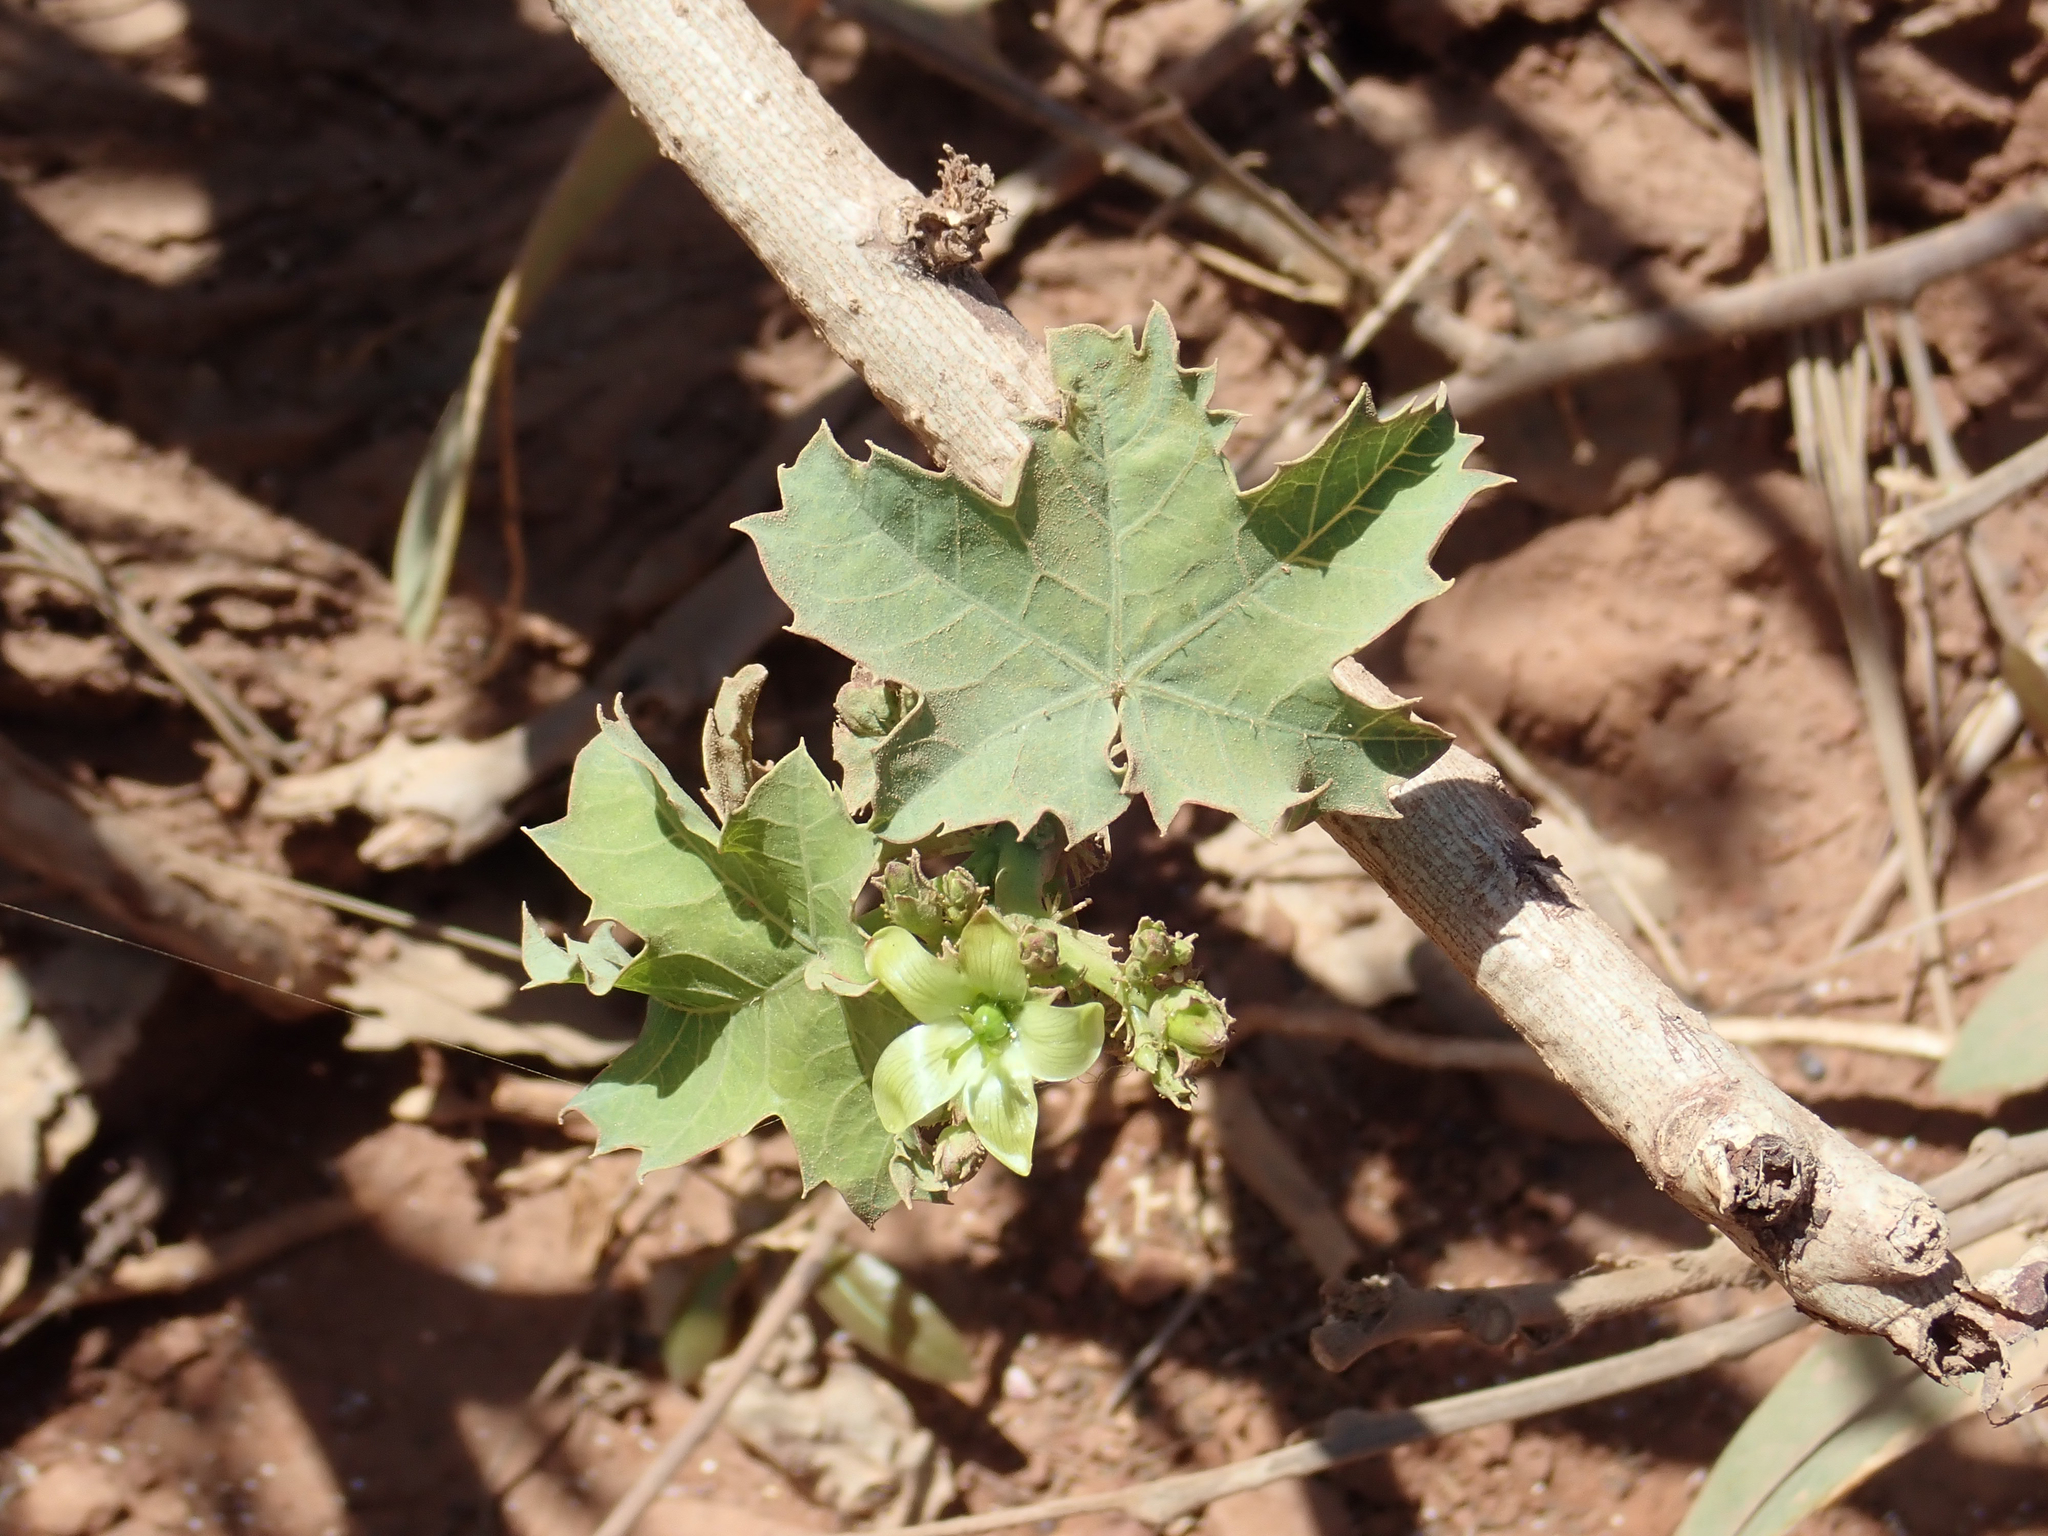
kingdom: Plantae
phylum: Tracheophyta
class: Magnoliopsida
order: Malpighiales
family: Euphorbiaceae
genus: Jatropha
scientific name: Jatropha chevalieri
